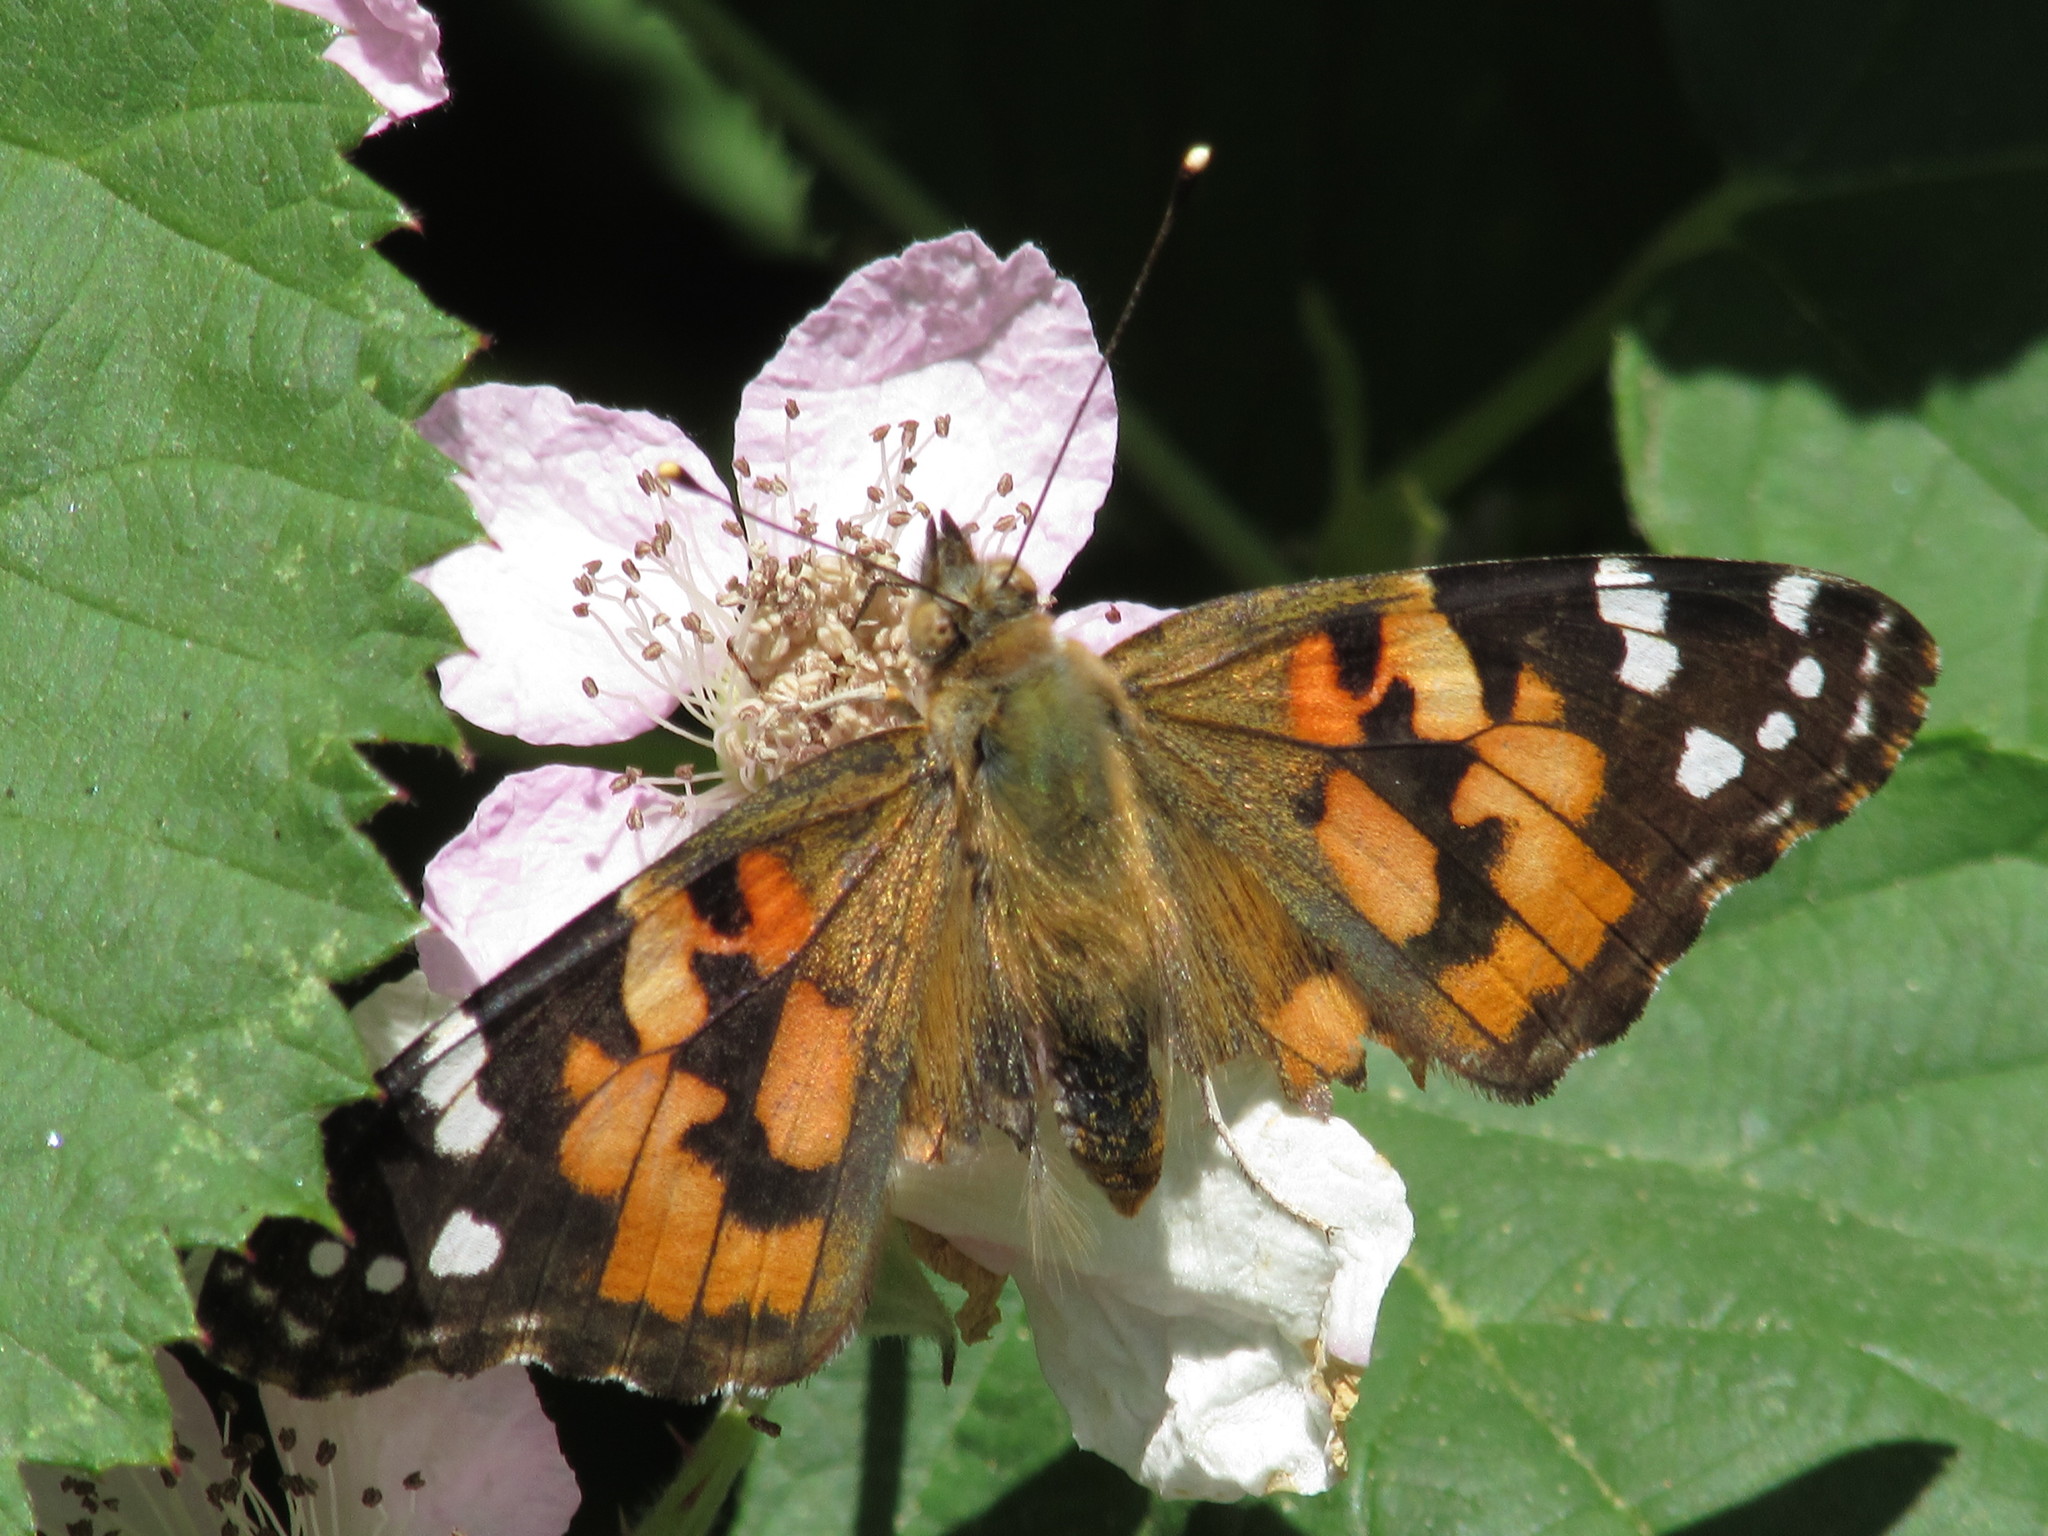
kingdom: Animalia
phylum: Arthropoda
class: Insecta
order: Lepidoptera
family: Nymphalidae
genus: Vanessa
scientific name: Vanessa cardui
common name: Painted lady
